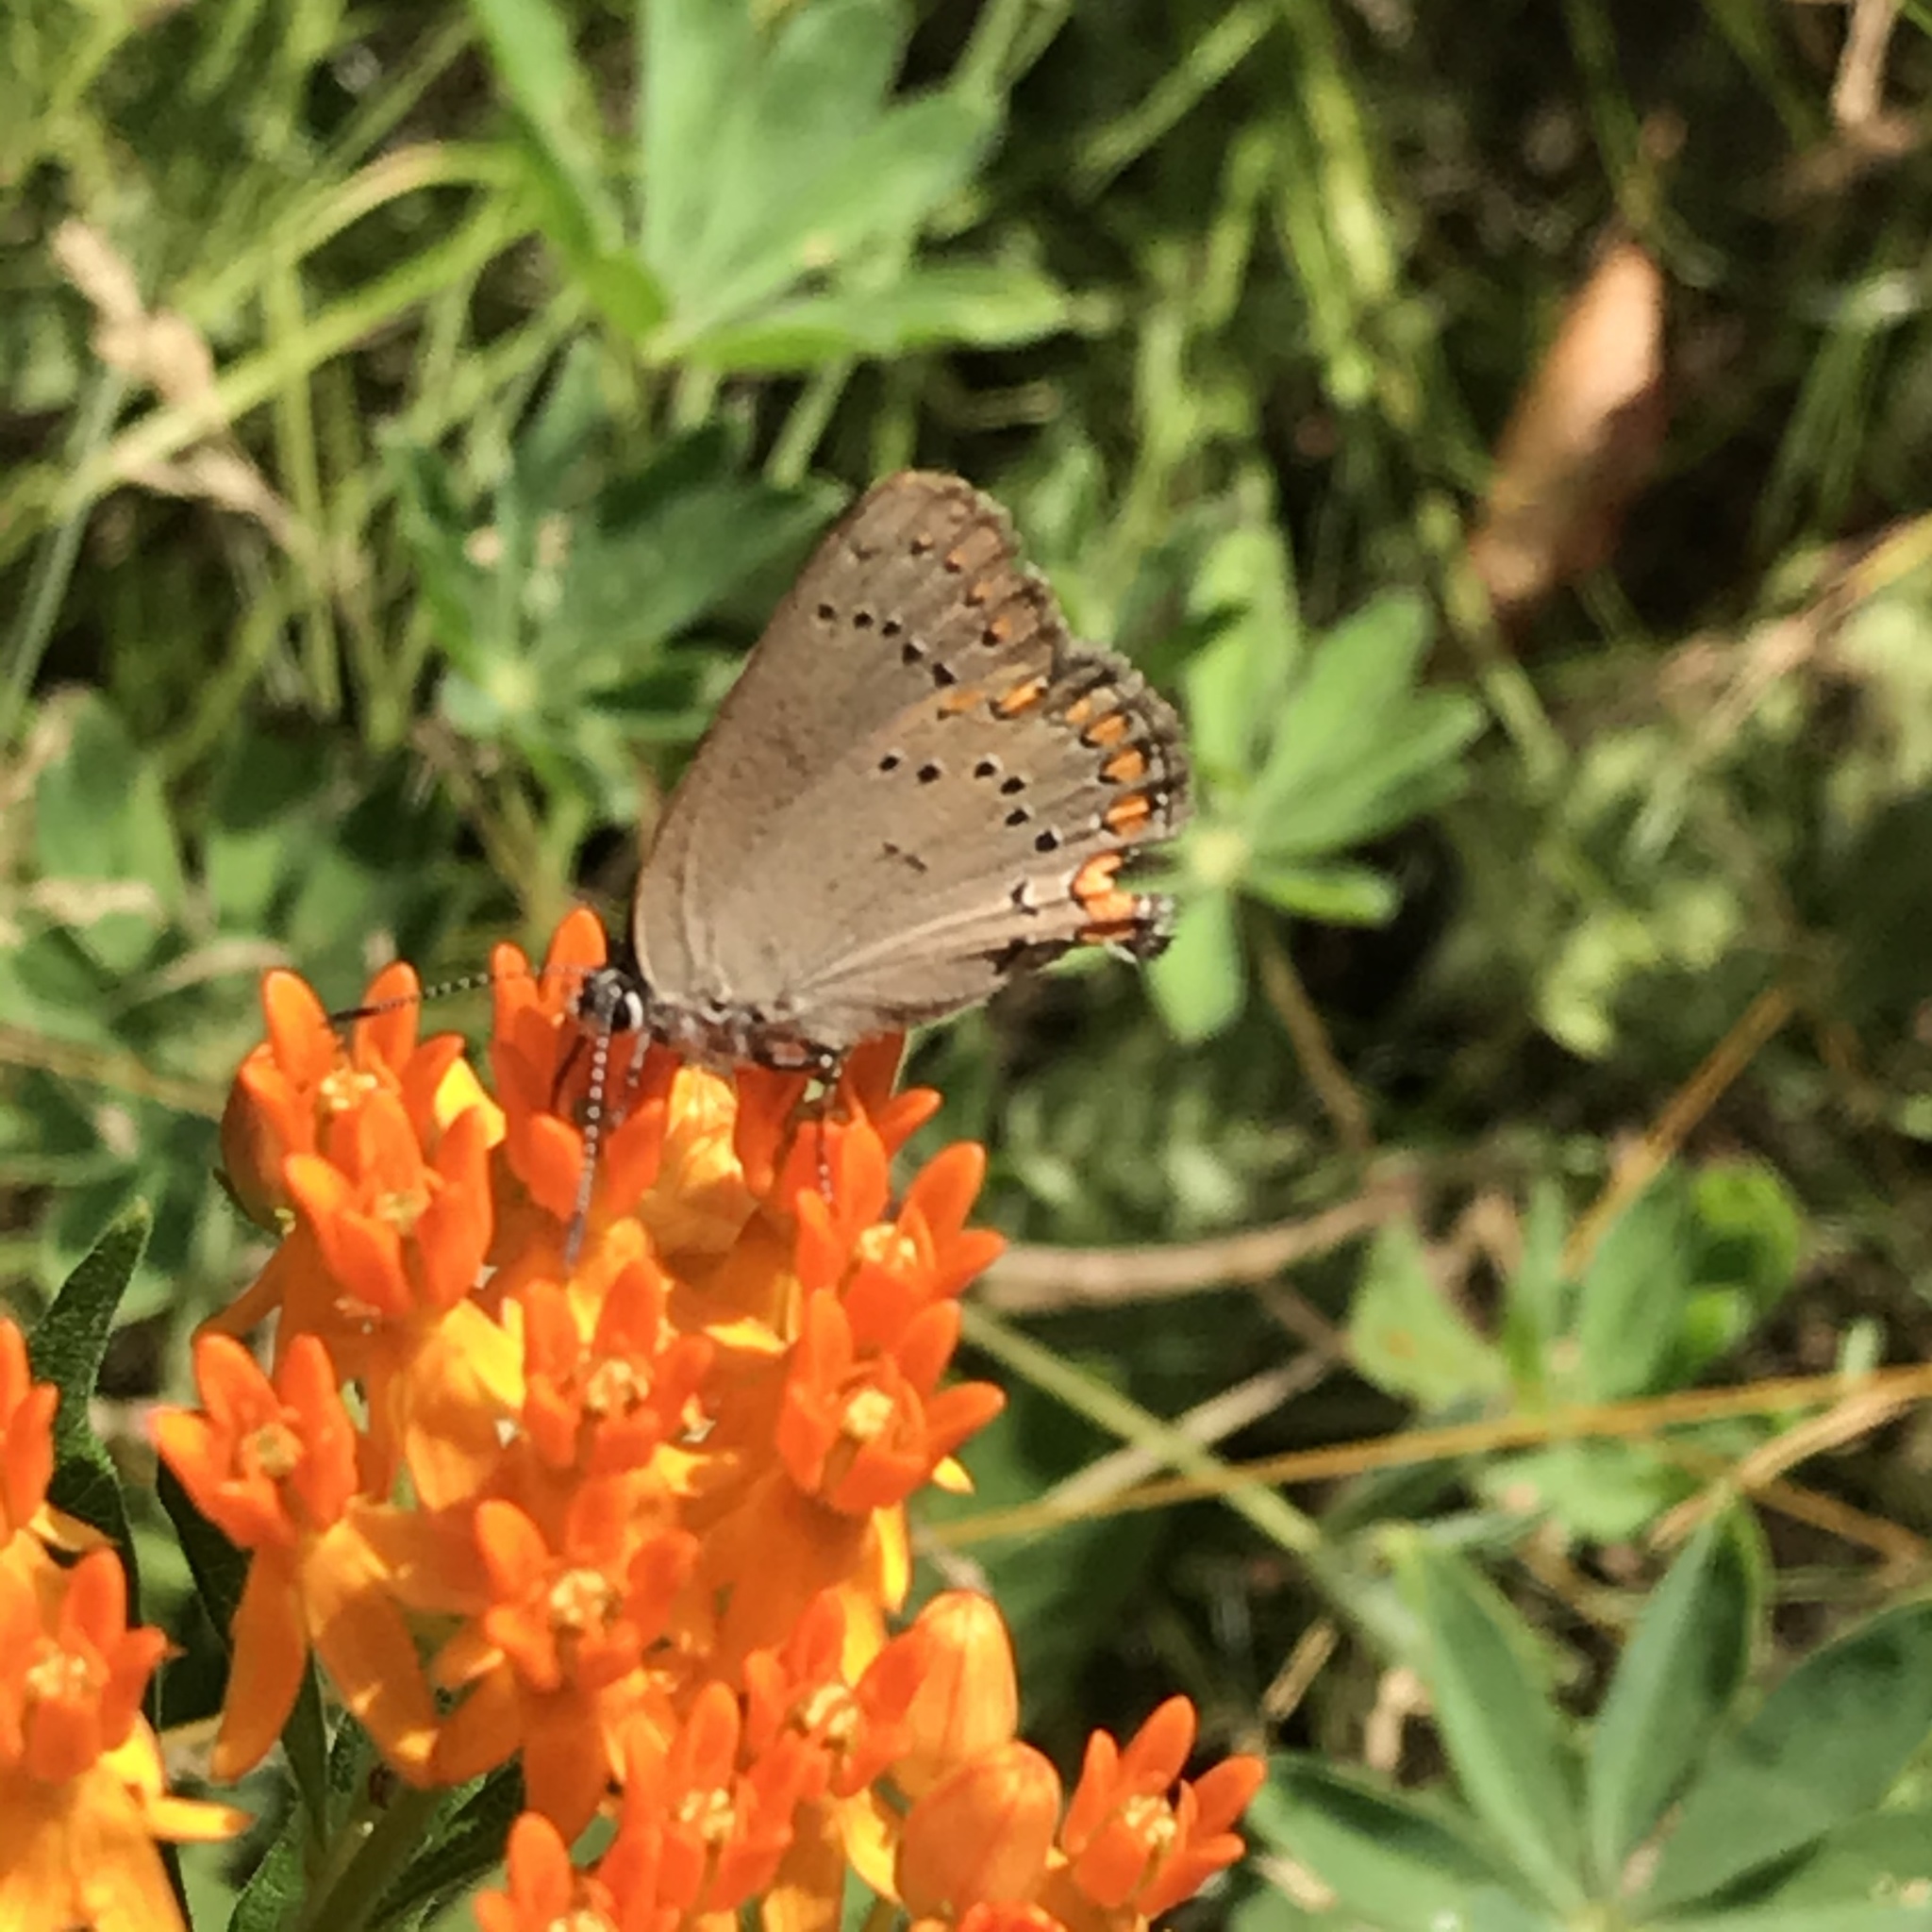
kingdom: Animalia
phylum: Arthropoda
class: Insecta
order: Lepidoptera
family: Lycaenidae
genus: Harkenclenus
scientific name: Harkenclenus titus
